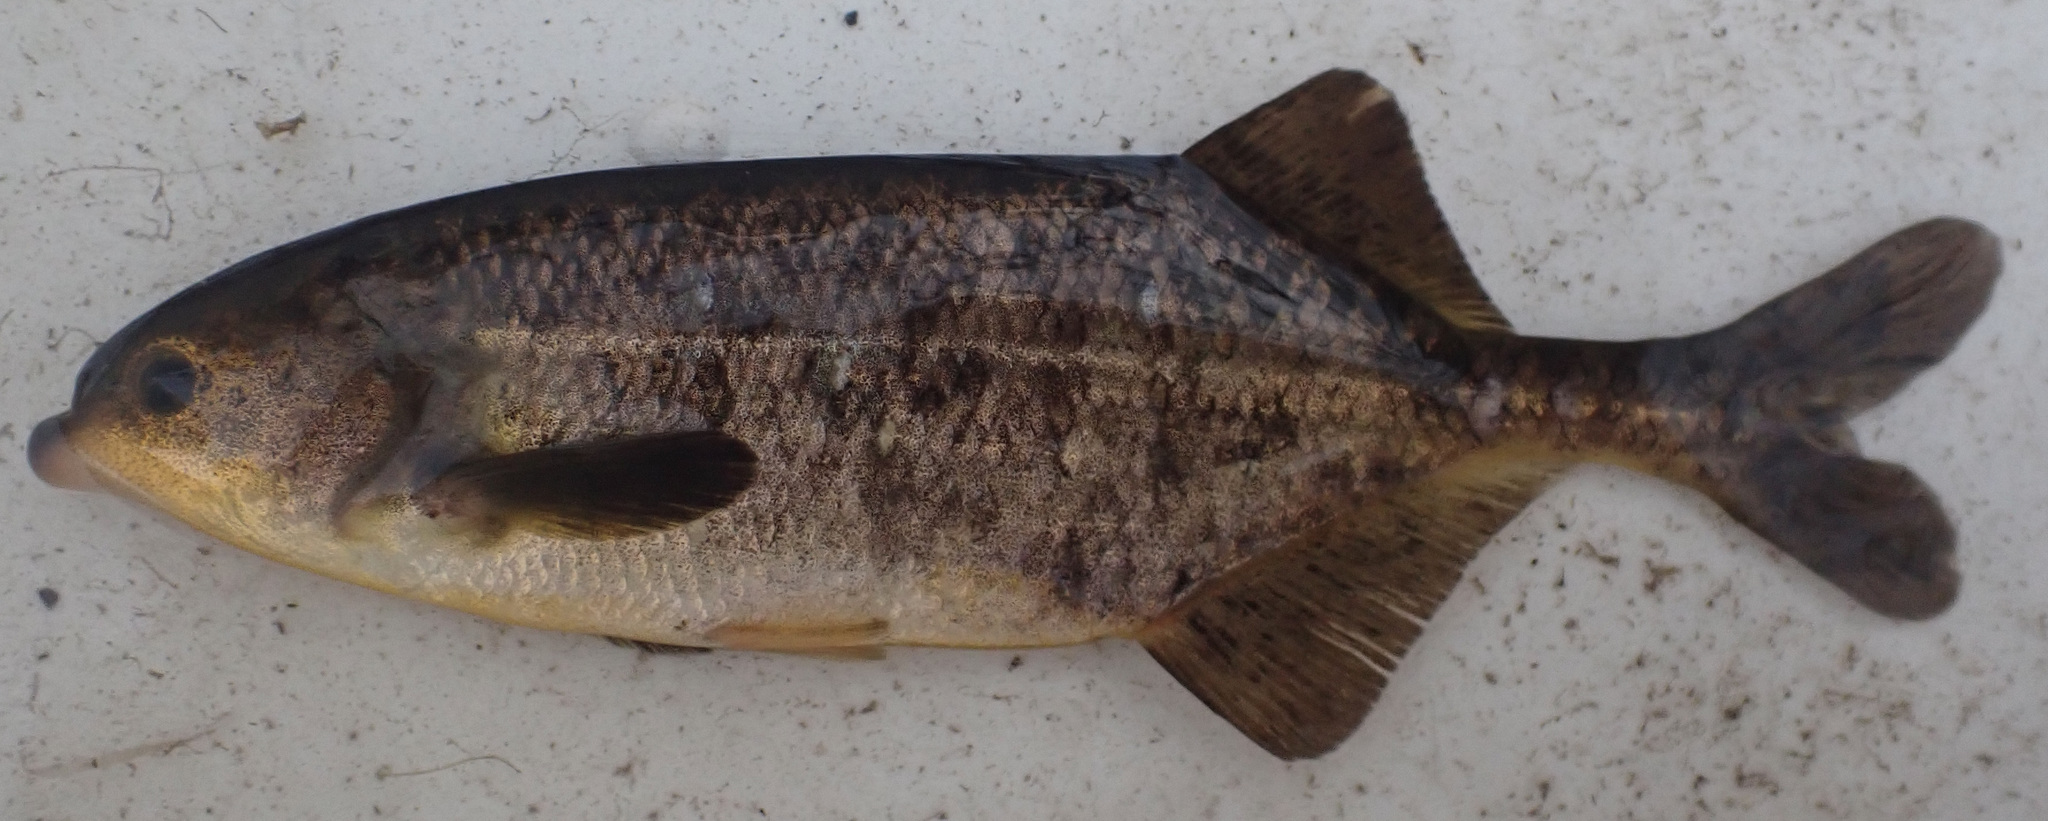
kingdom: Animalia
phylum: Chordata
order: Osteoglossiformes
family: Mormyridae
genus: Marcusenius
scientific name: Marcusenius altisambesi
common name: Bulldog
